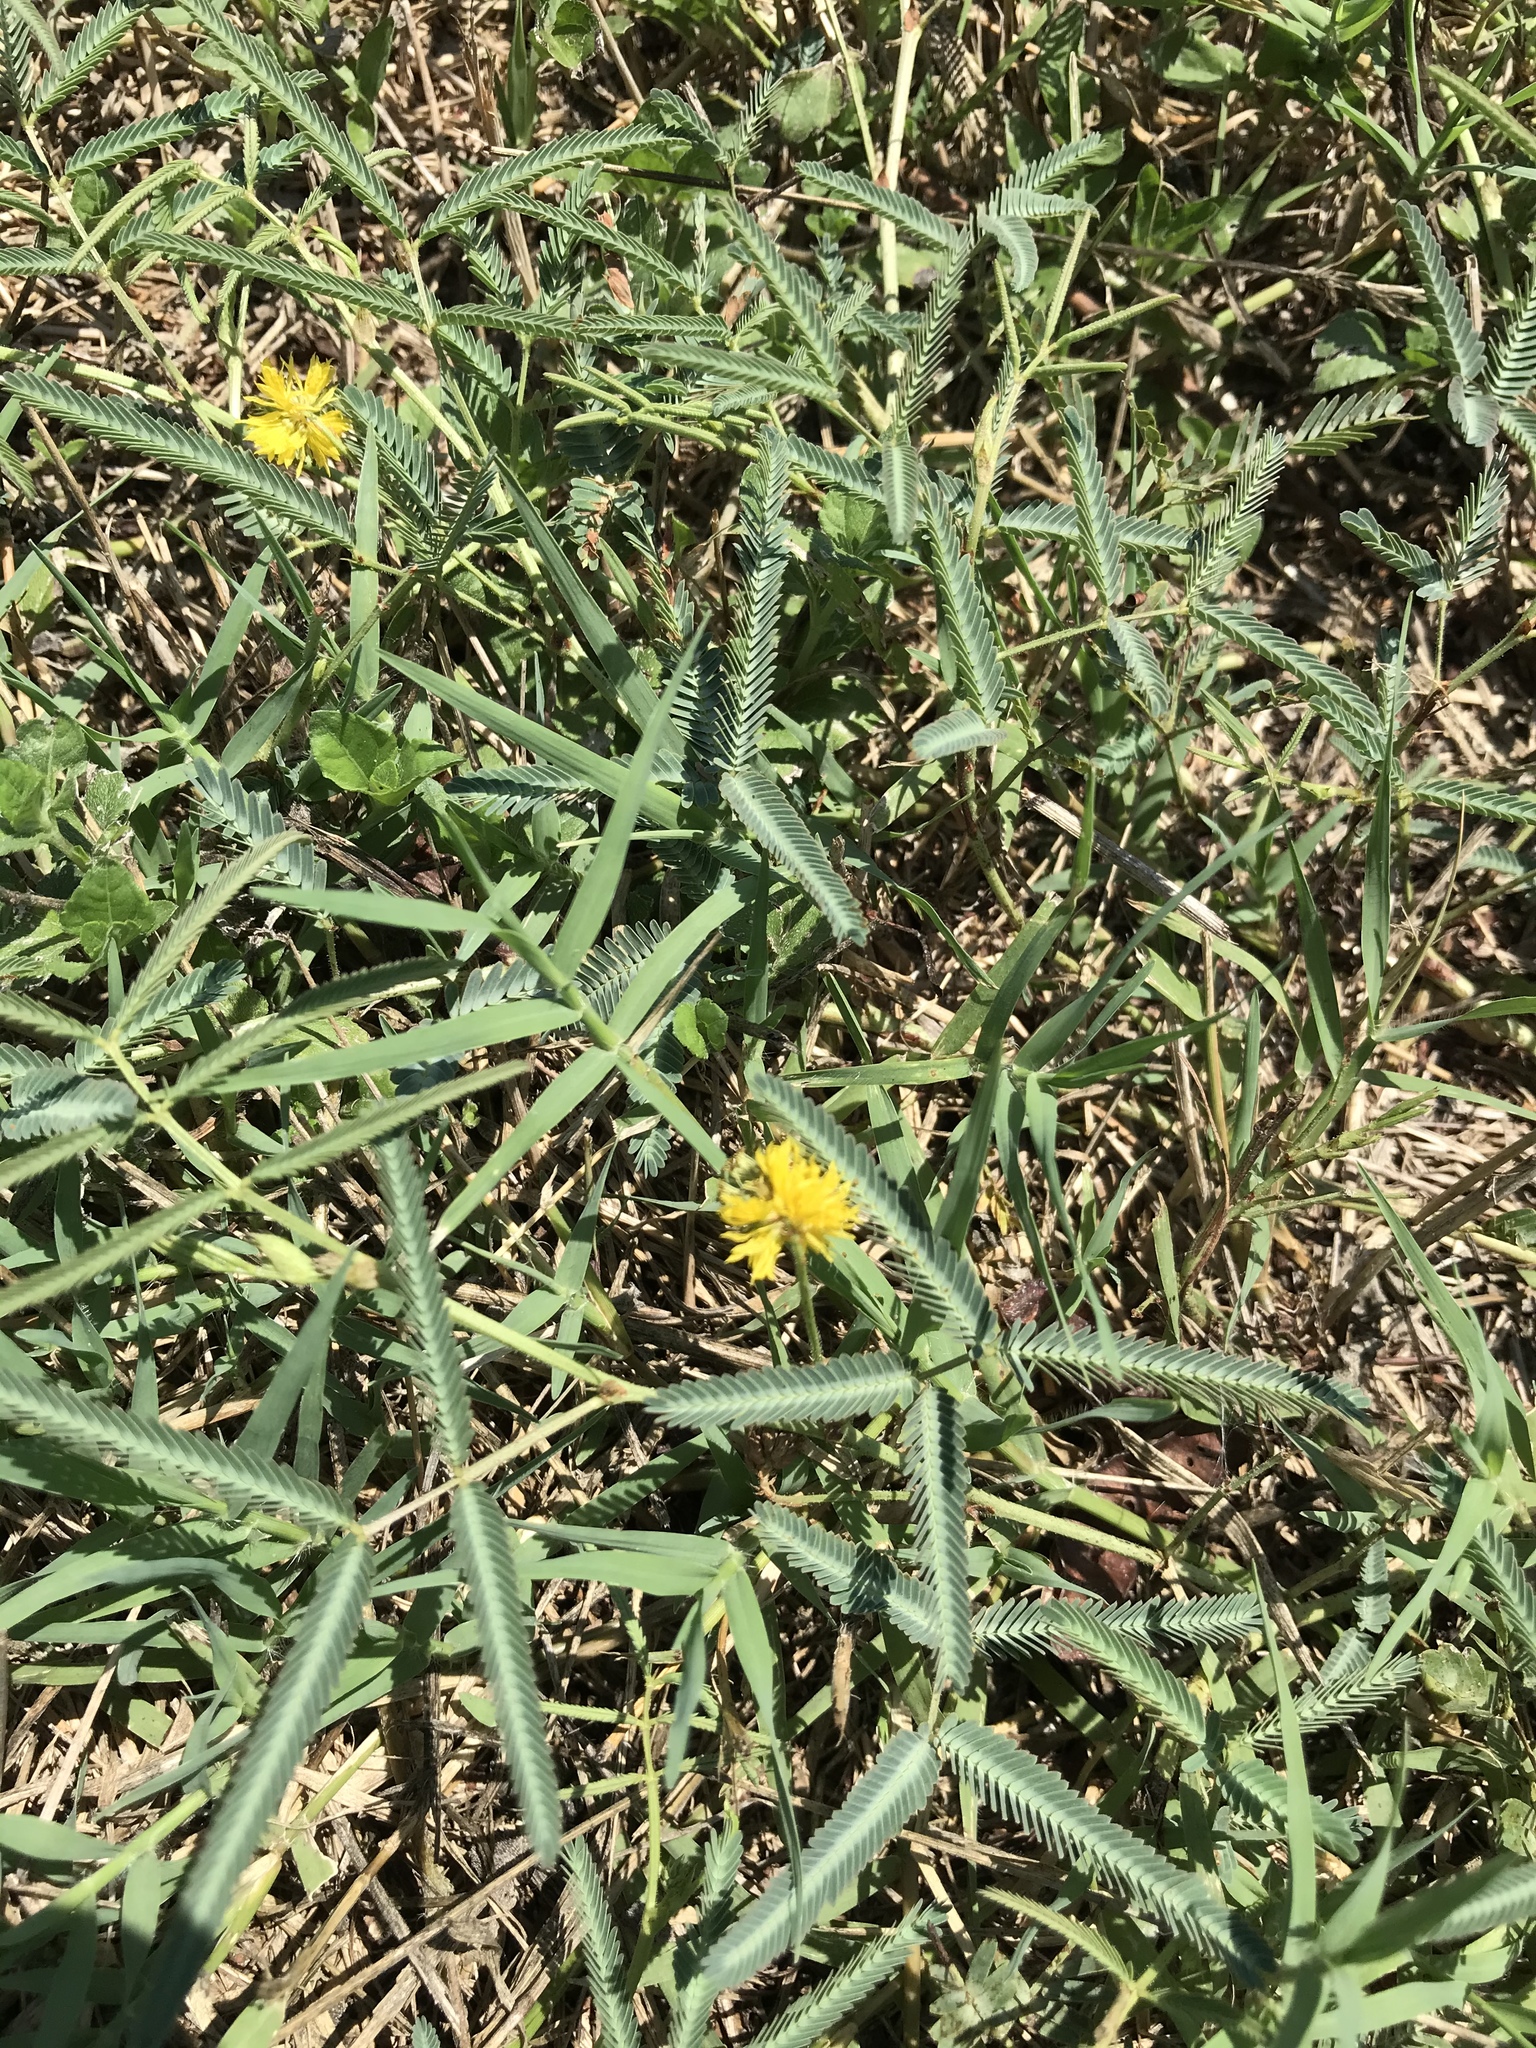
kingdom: Plantae
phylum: Tracheophyta
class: Magnoliopsida
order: Fabales
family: Fabaceae
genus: Neptunia
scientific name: Neptunia pubescens
